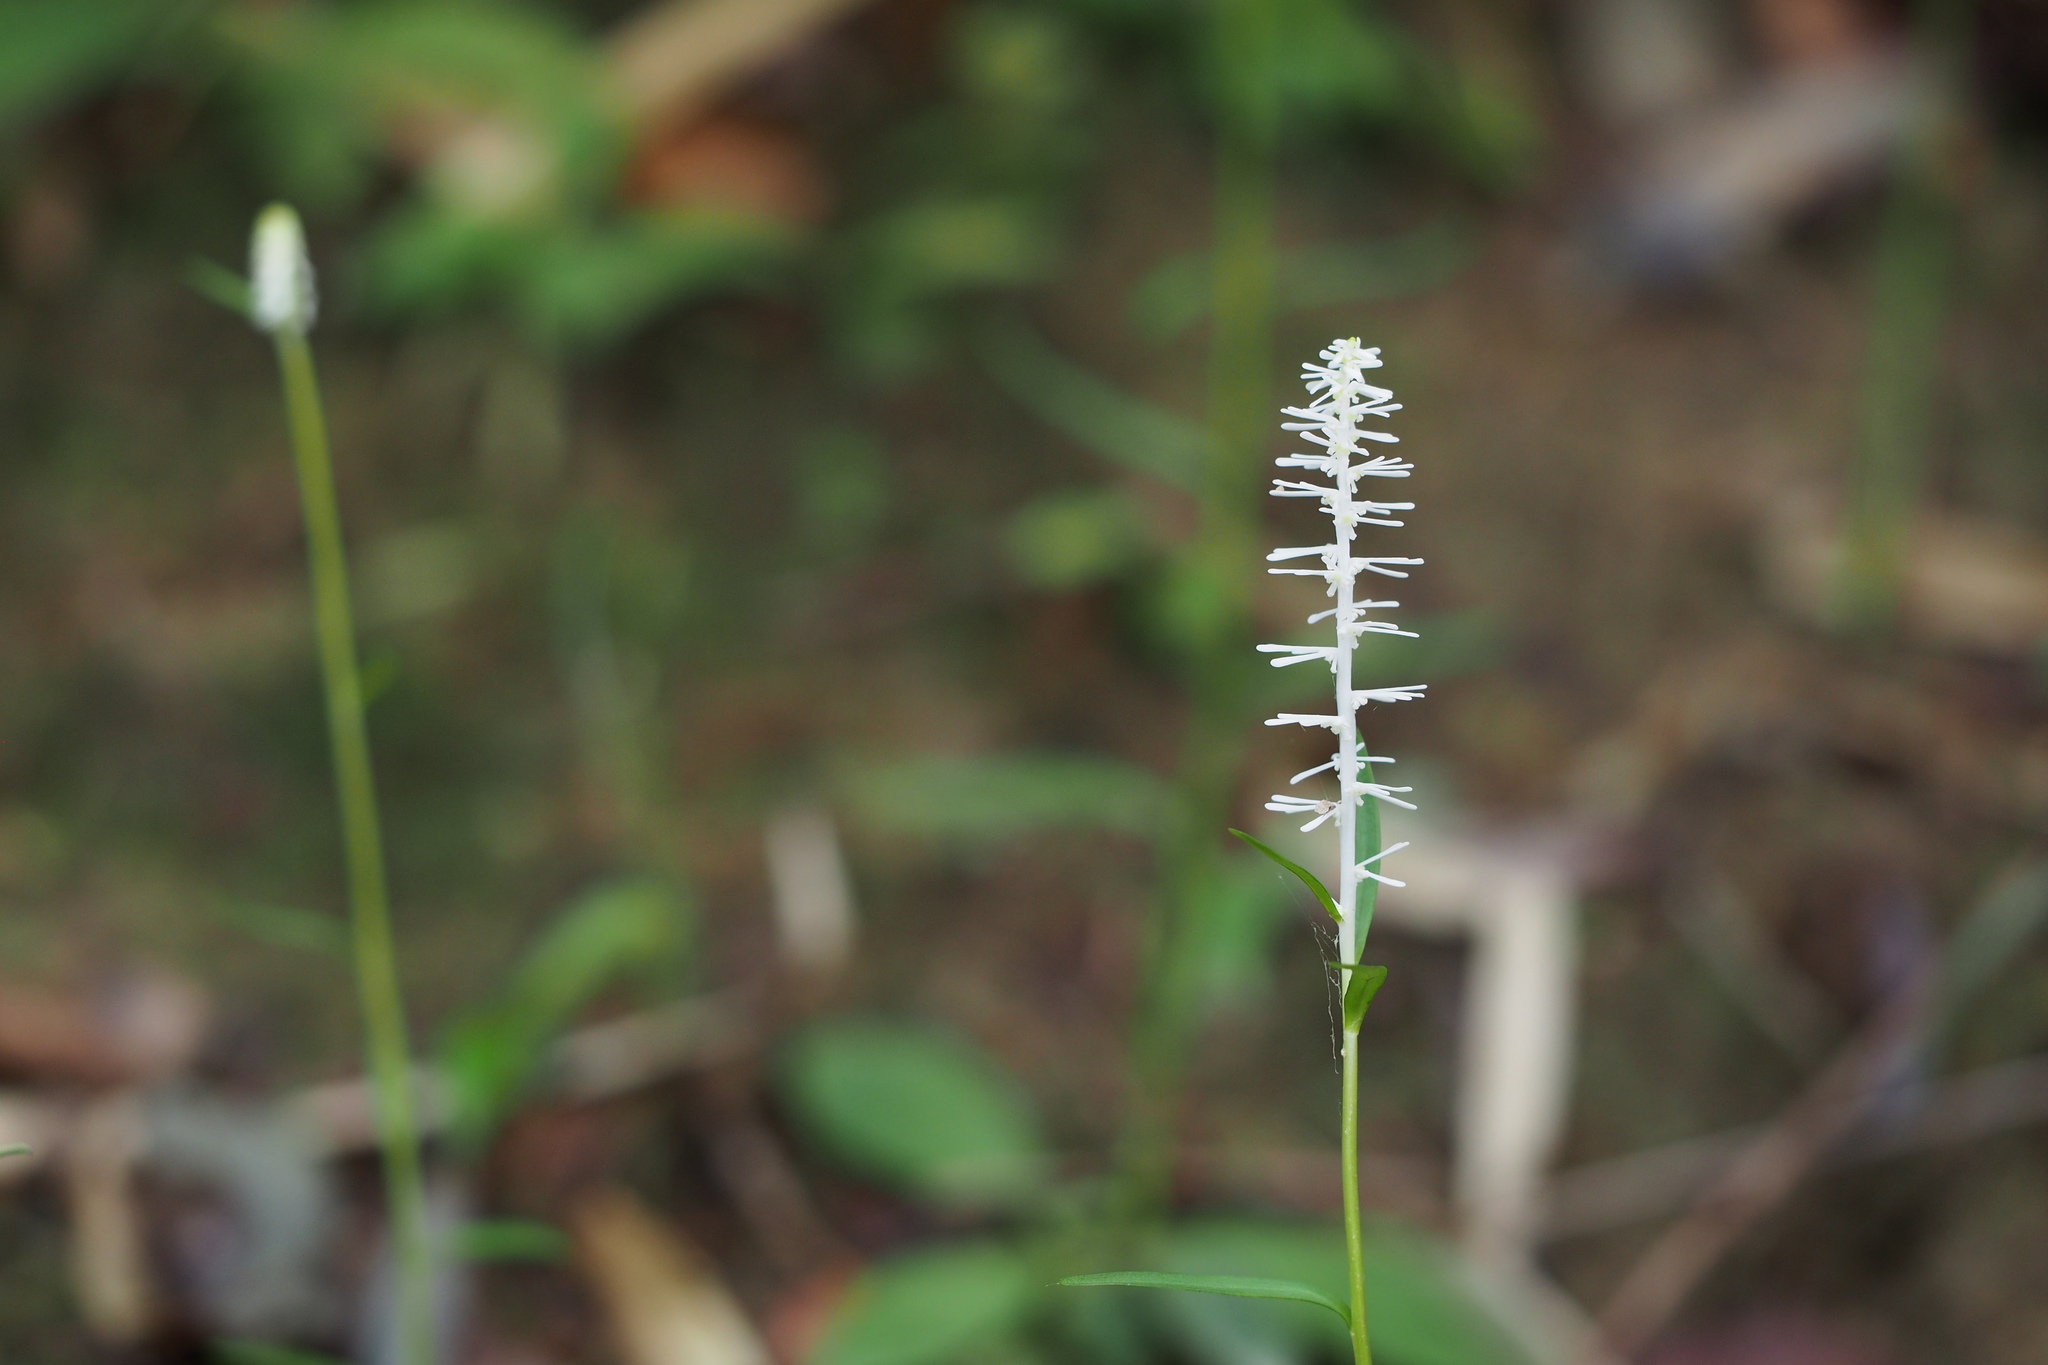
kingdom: Plantae
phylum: Tracheophyta
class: Liliopsida
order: Liliales
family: Melanthiaceae
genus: Chamaelirium
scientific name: Chamaelirium japonicum
